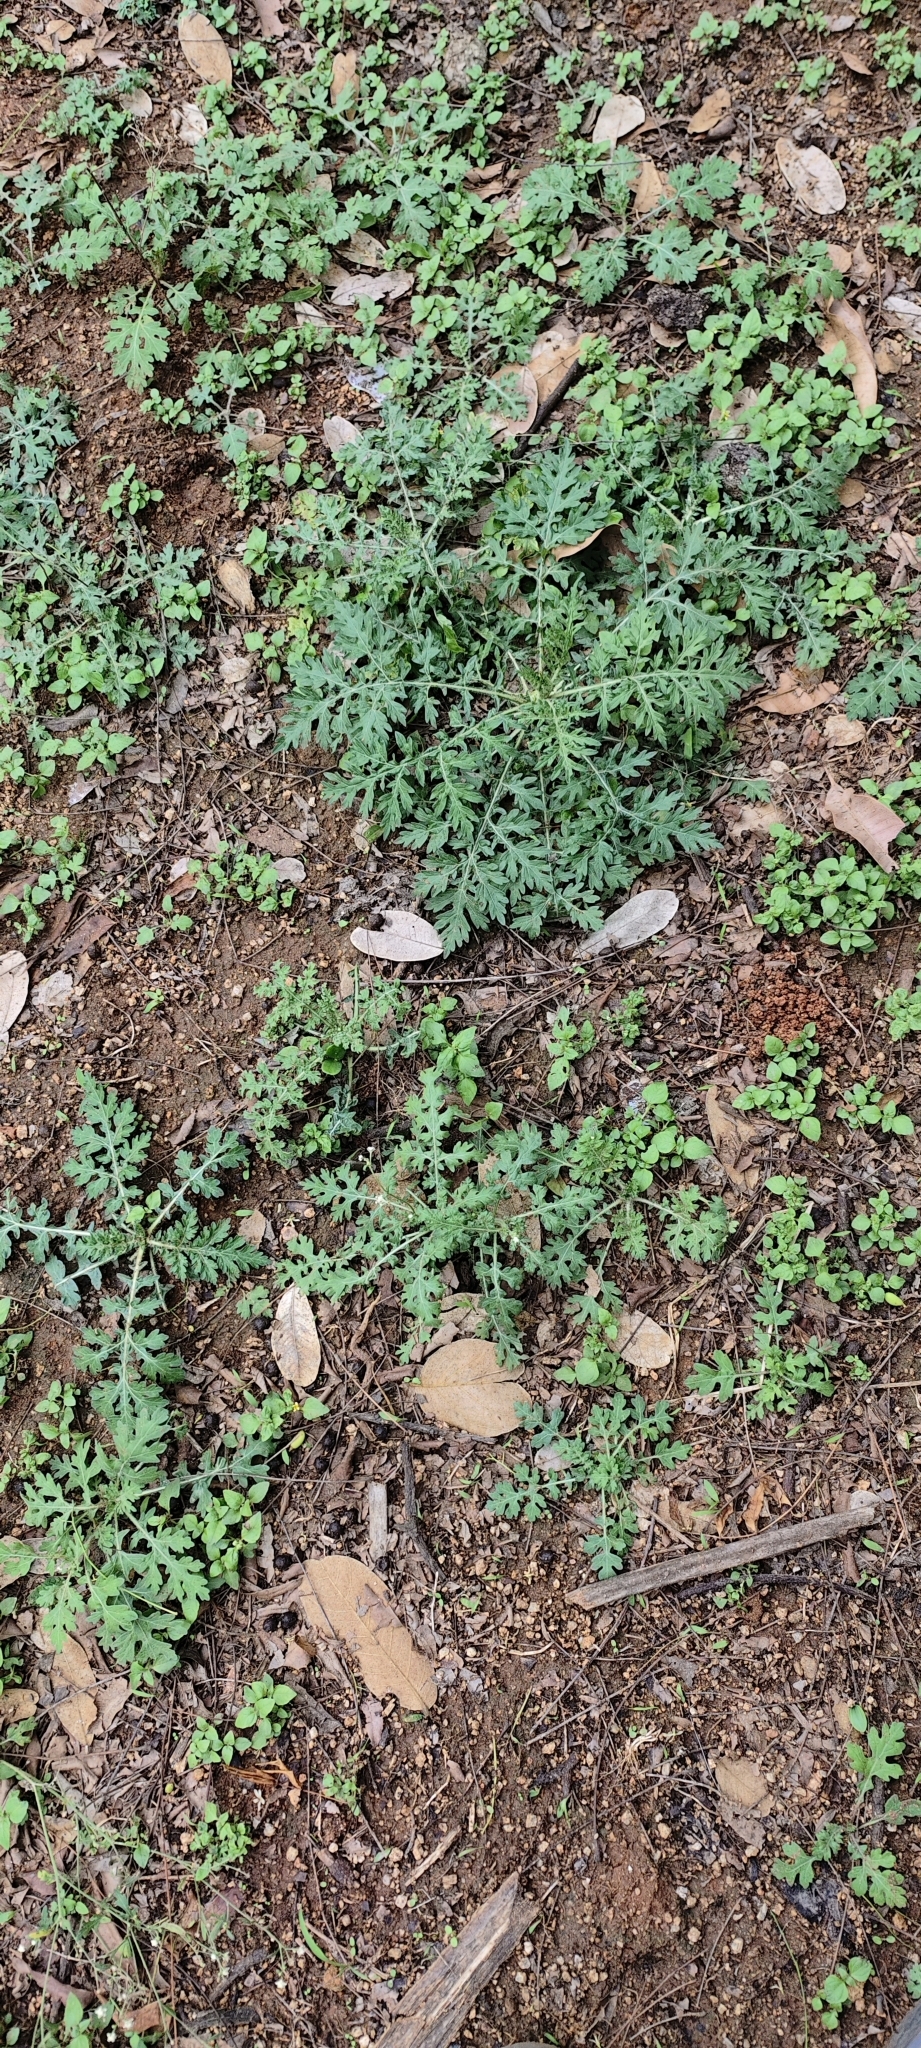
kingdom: Plantae
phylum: Tracheophyta
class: Magnoliopsida
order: Asterales
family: Asteraceae
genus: Parthenium
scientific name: Parthenium hysterophorus
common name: Santa maria feverfew
